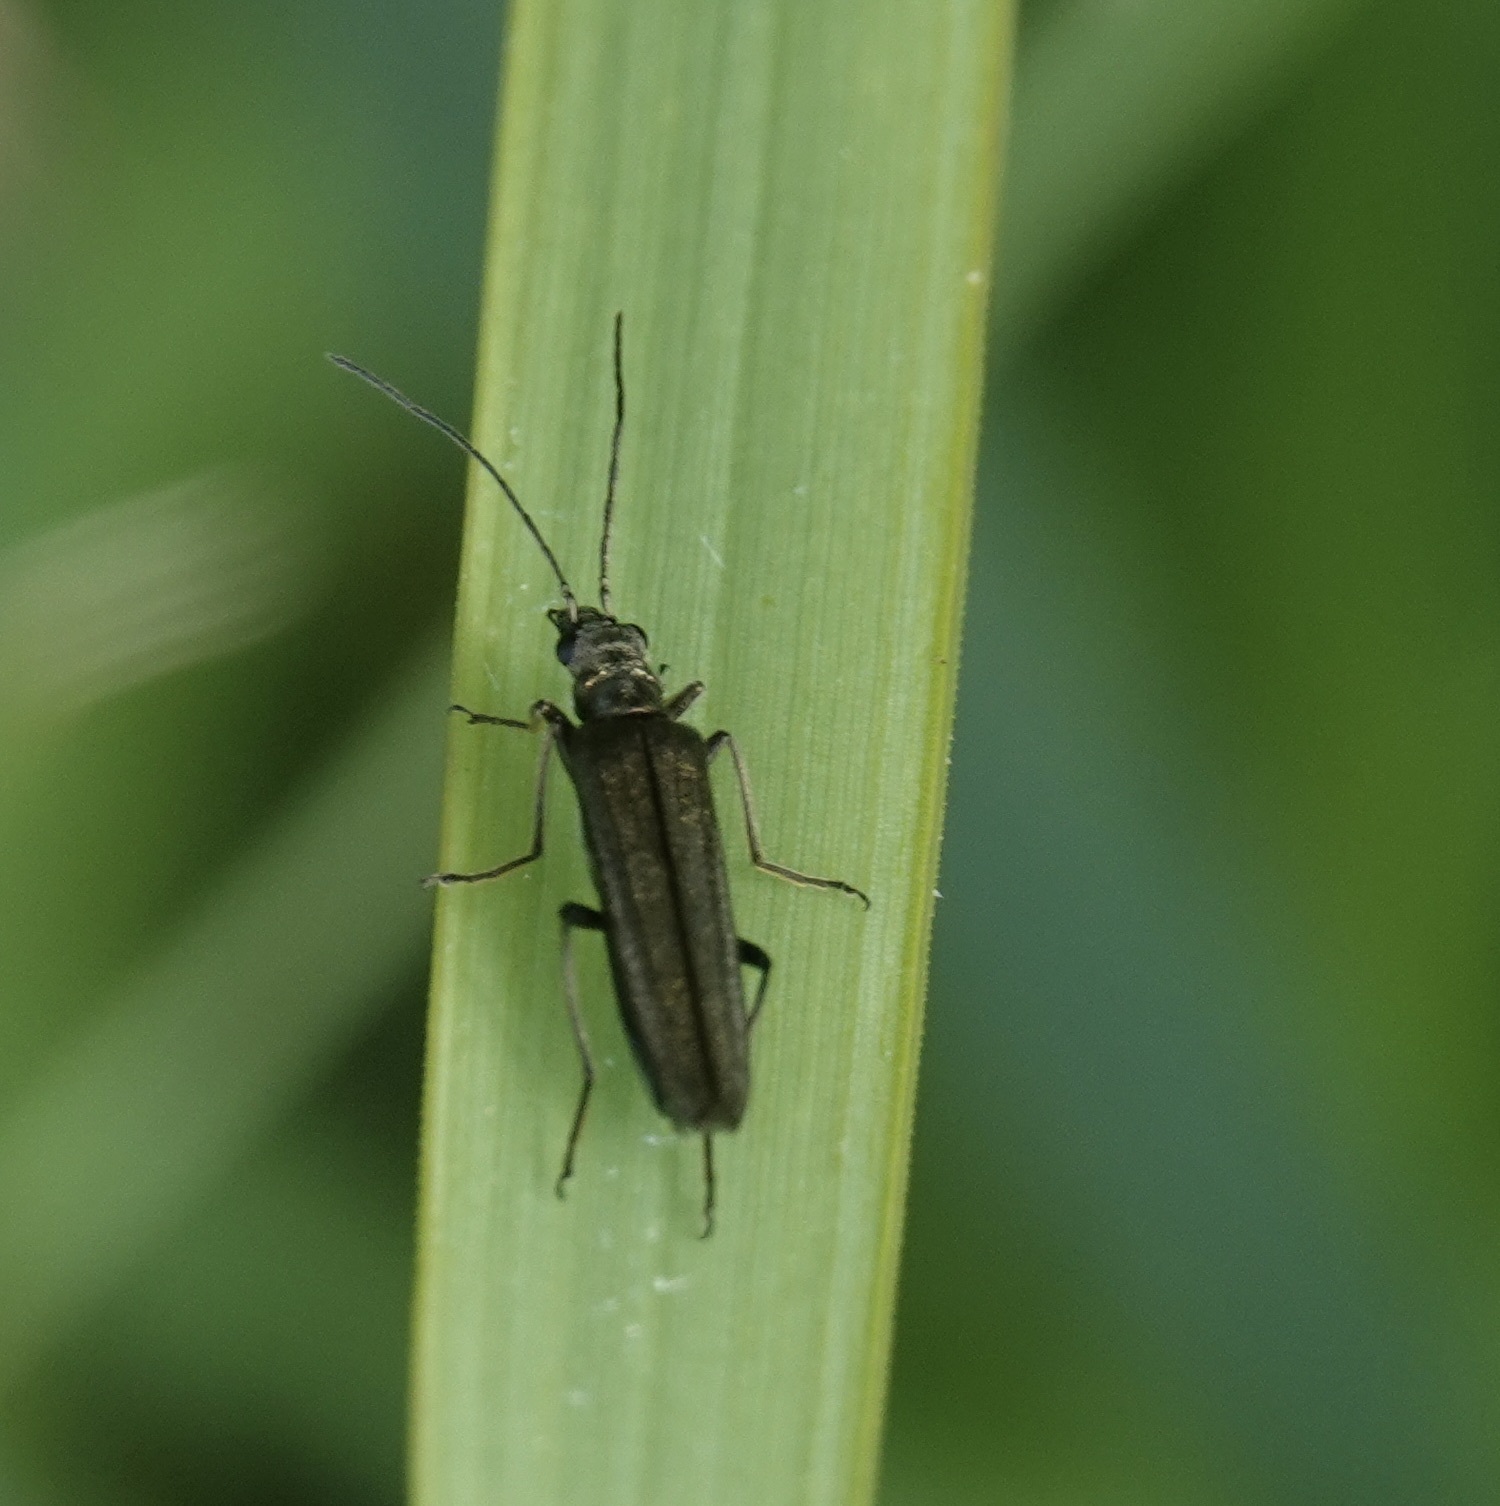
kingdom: Animalia
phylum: Arthropoda
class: Insecta
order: Coleoptera
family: Oedemeridae
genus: Oedemera
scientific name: Oedemera lurida
